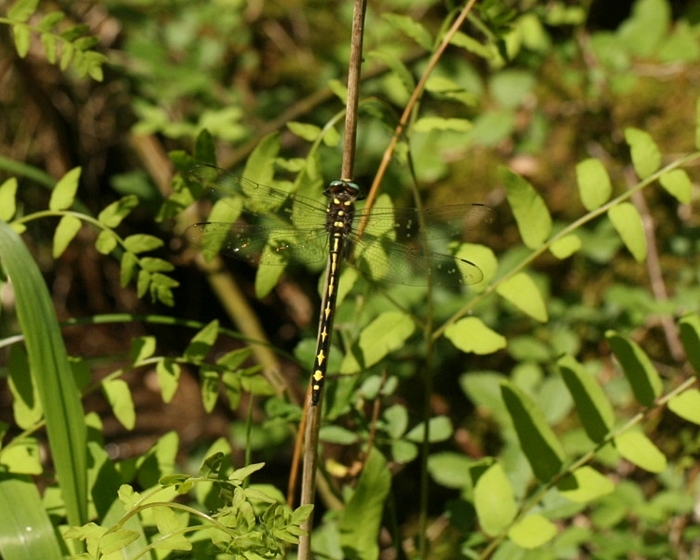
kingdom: Animalia
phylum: Arthropoda
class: Insecta
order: Odonata
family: Cordulegastridae
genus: Cordulegaster
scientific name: Cordulegaster obliqua
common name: Arrowhead spiketail
